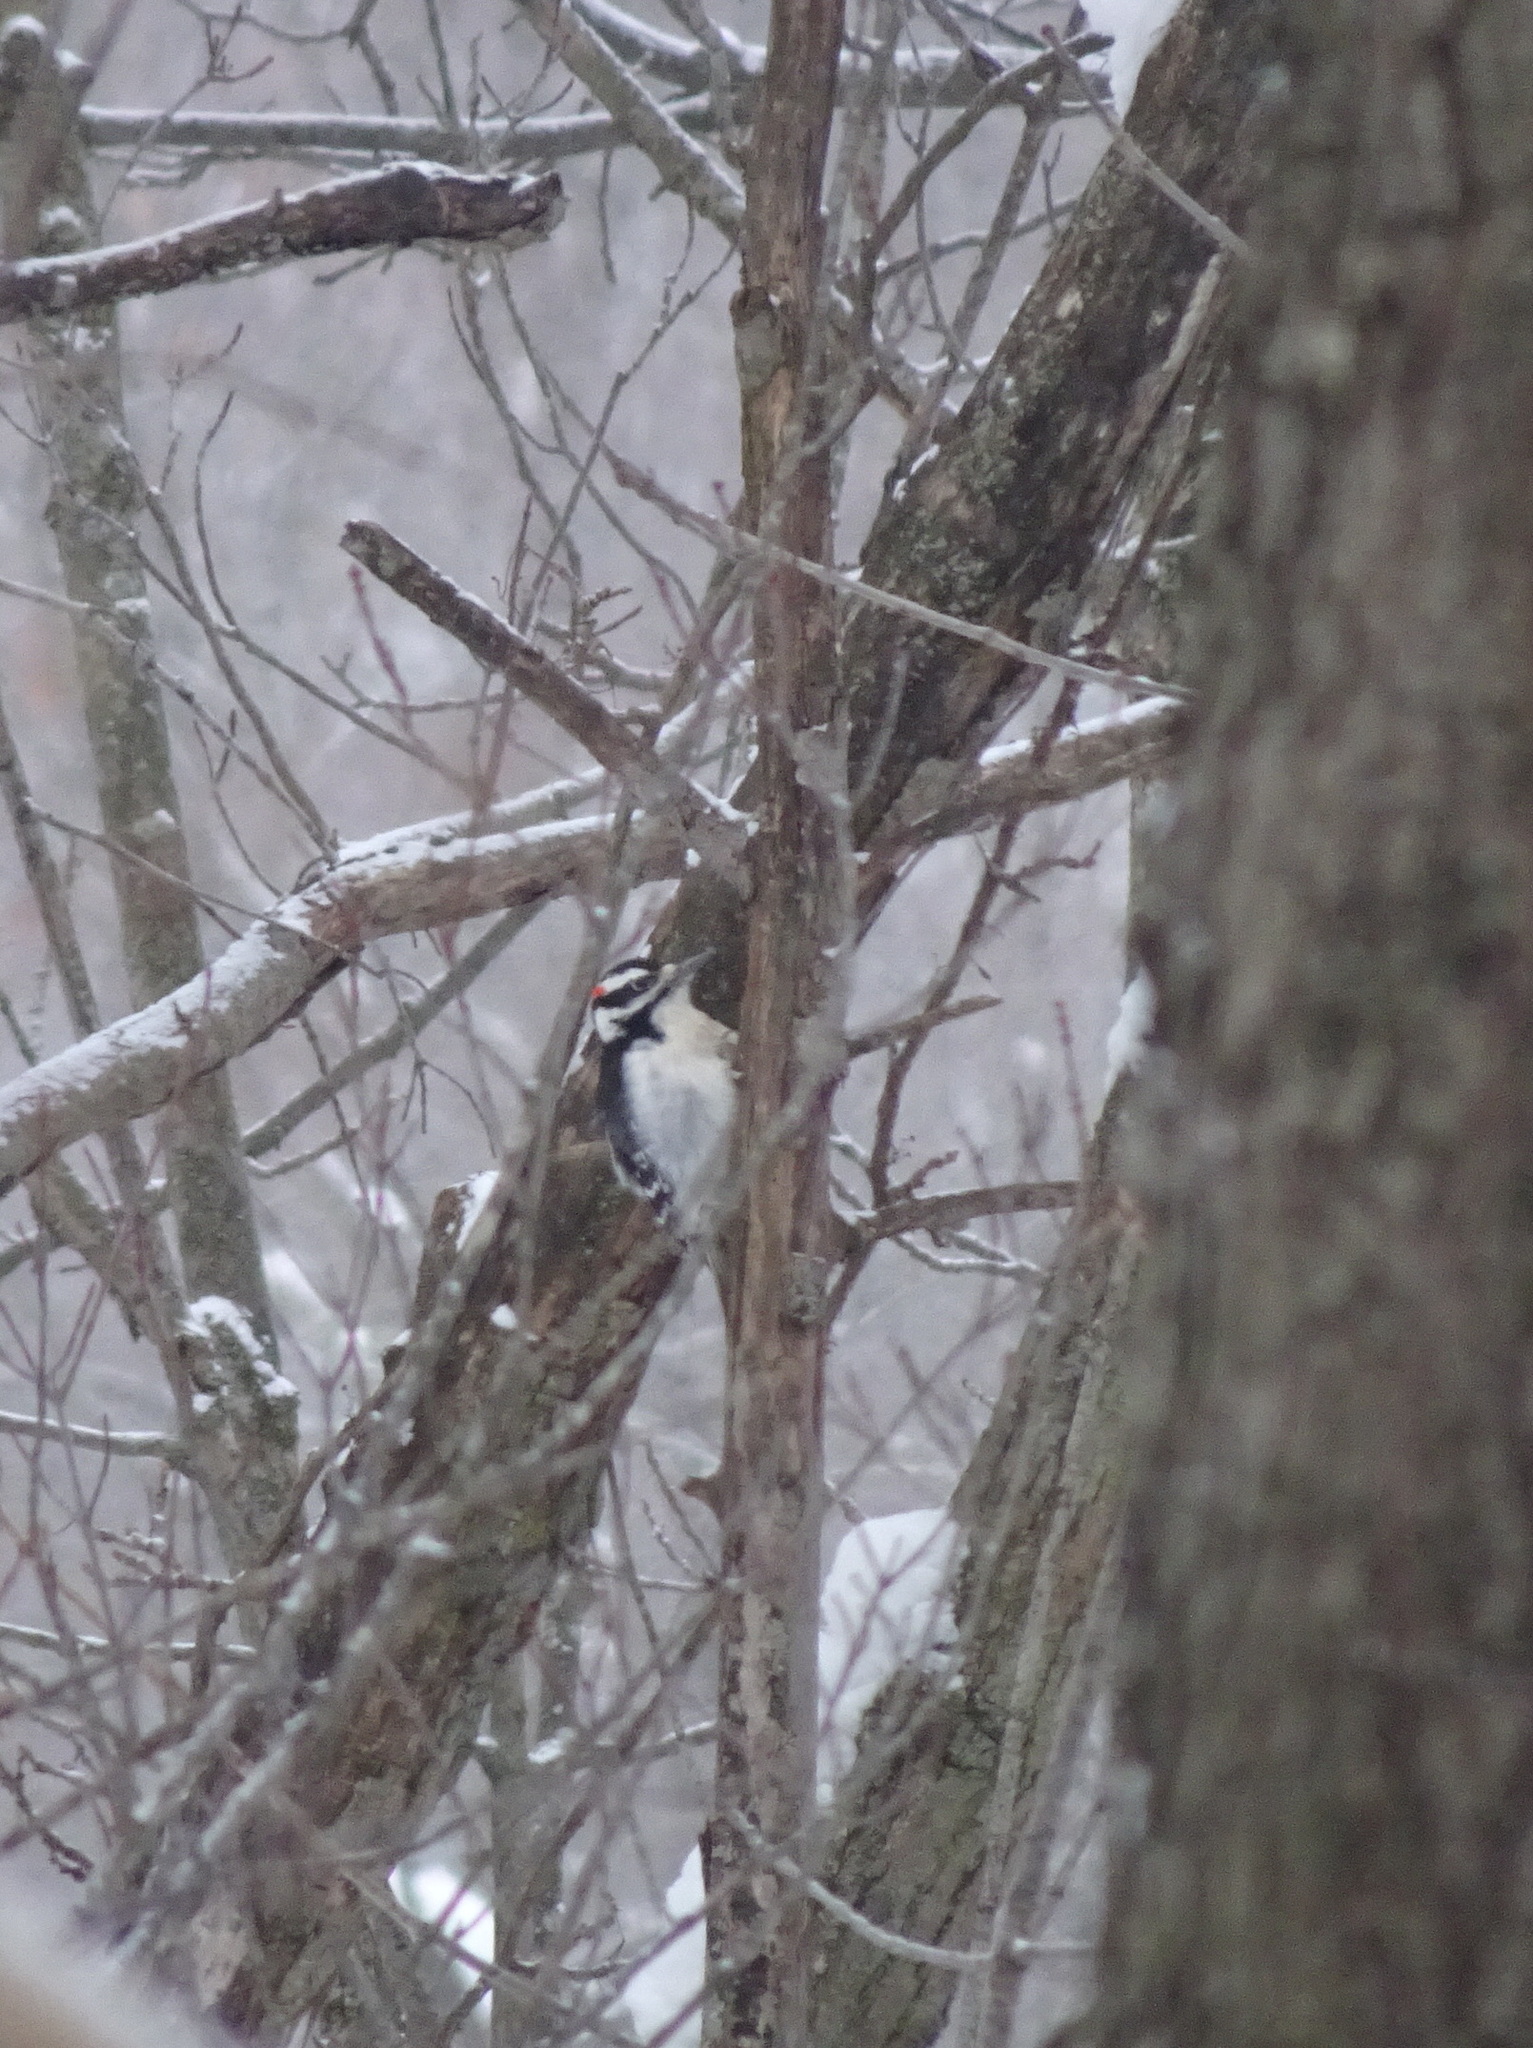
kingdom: Animalia
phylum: Chordata
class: Aves
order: Piciformes
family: Picidae
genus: Dryobates
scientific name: Dryobates pubescens
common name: Downy woodpecker
